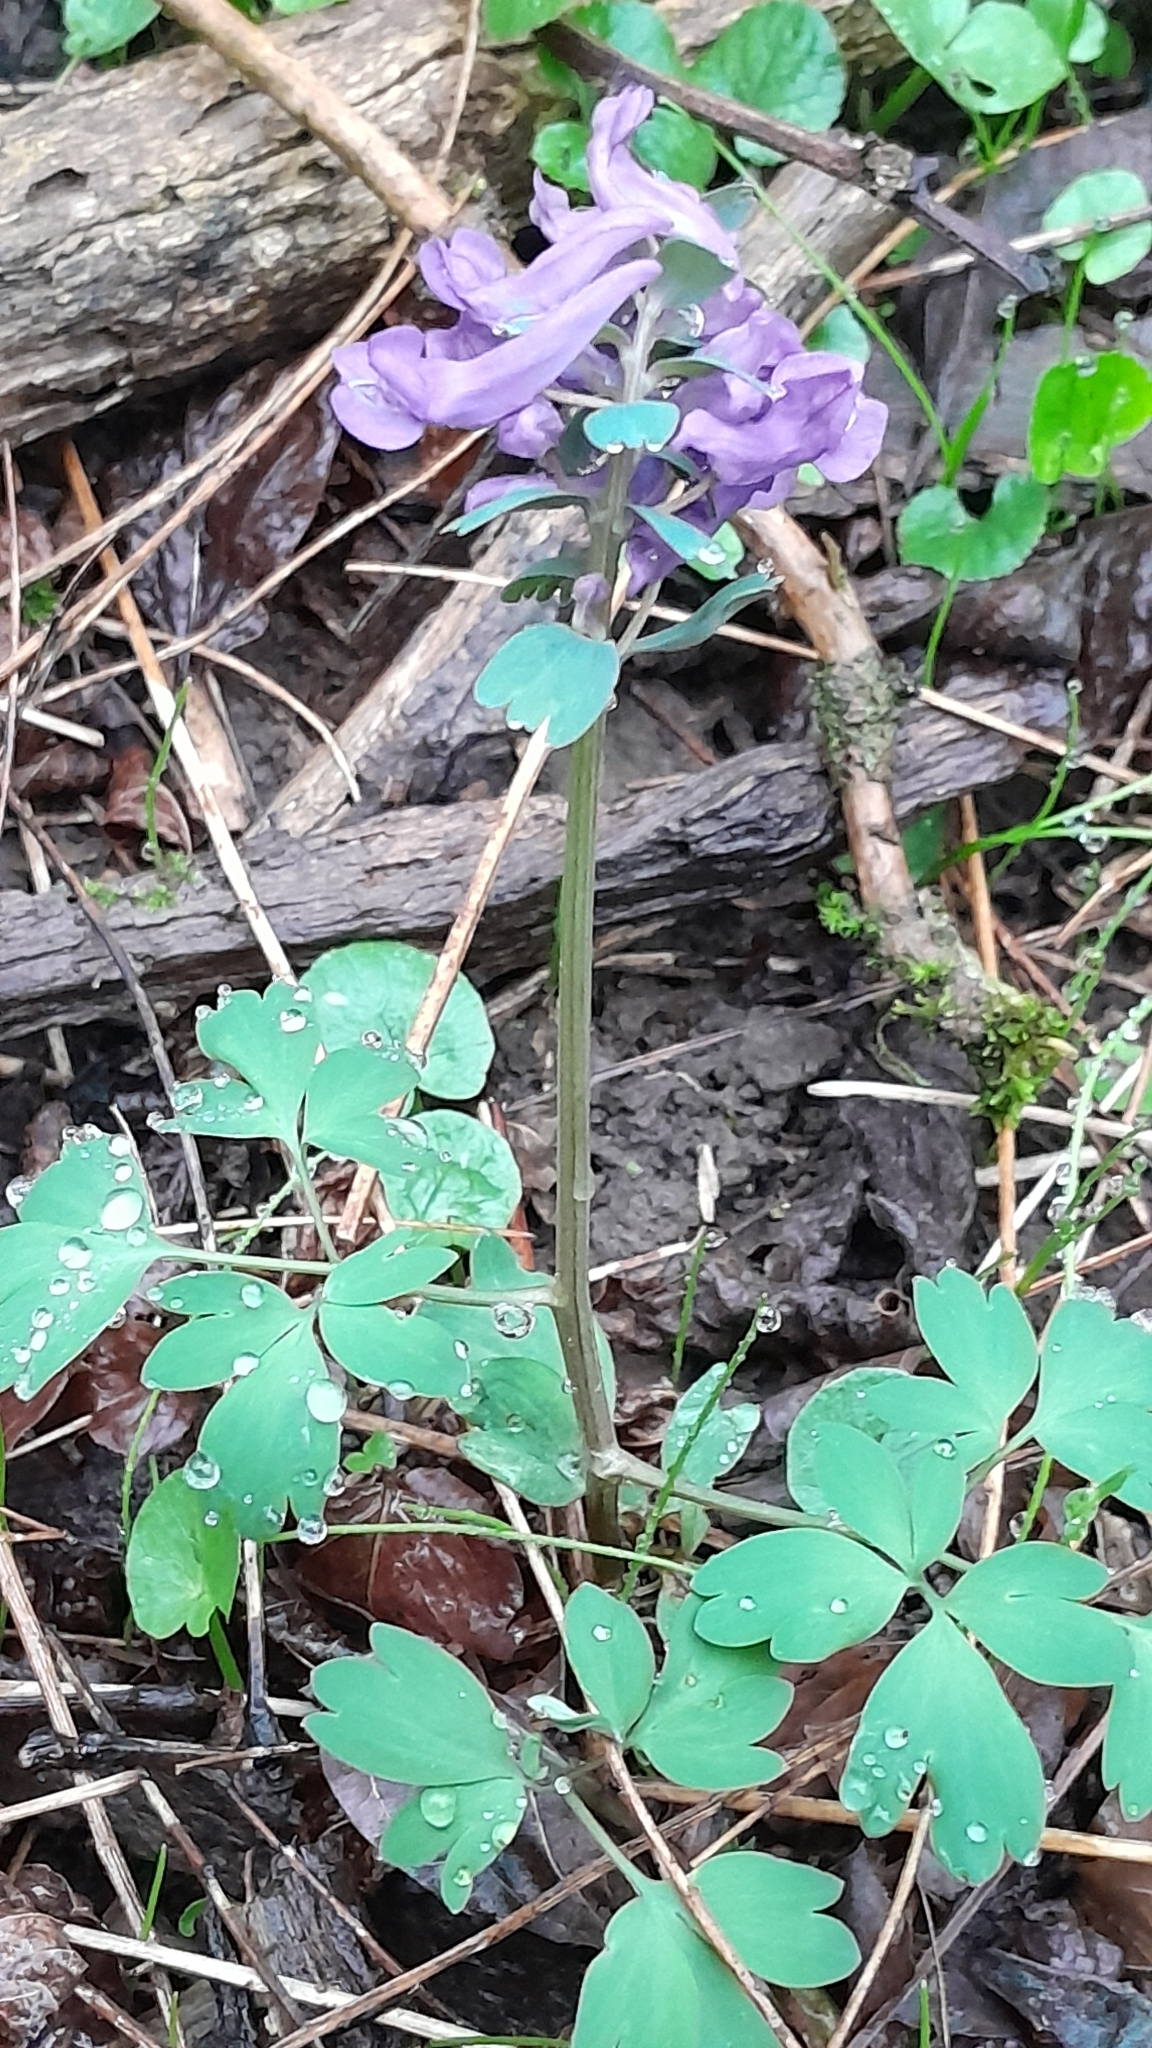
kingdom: Plantae
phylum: Tracheophyta
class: Magnoliopsida
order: Ranunculales
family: Papaveraceae
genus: Corydalis
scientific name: Corydalis solida
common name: Bird-in-a-bush
